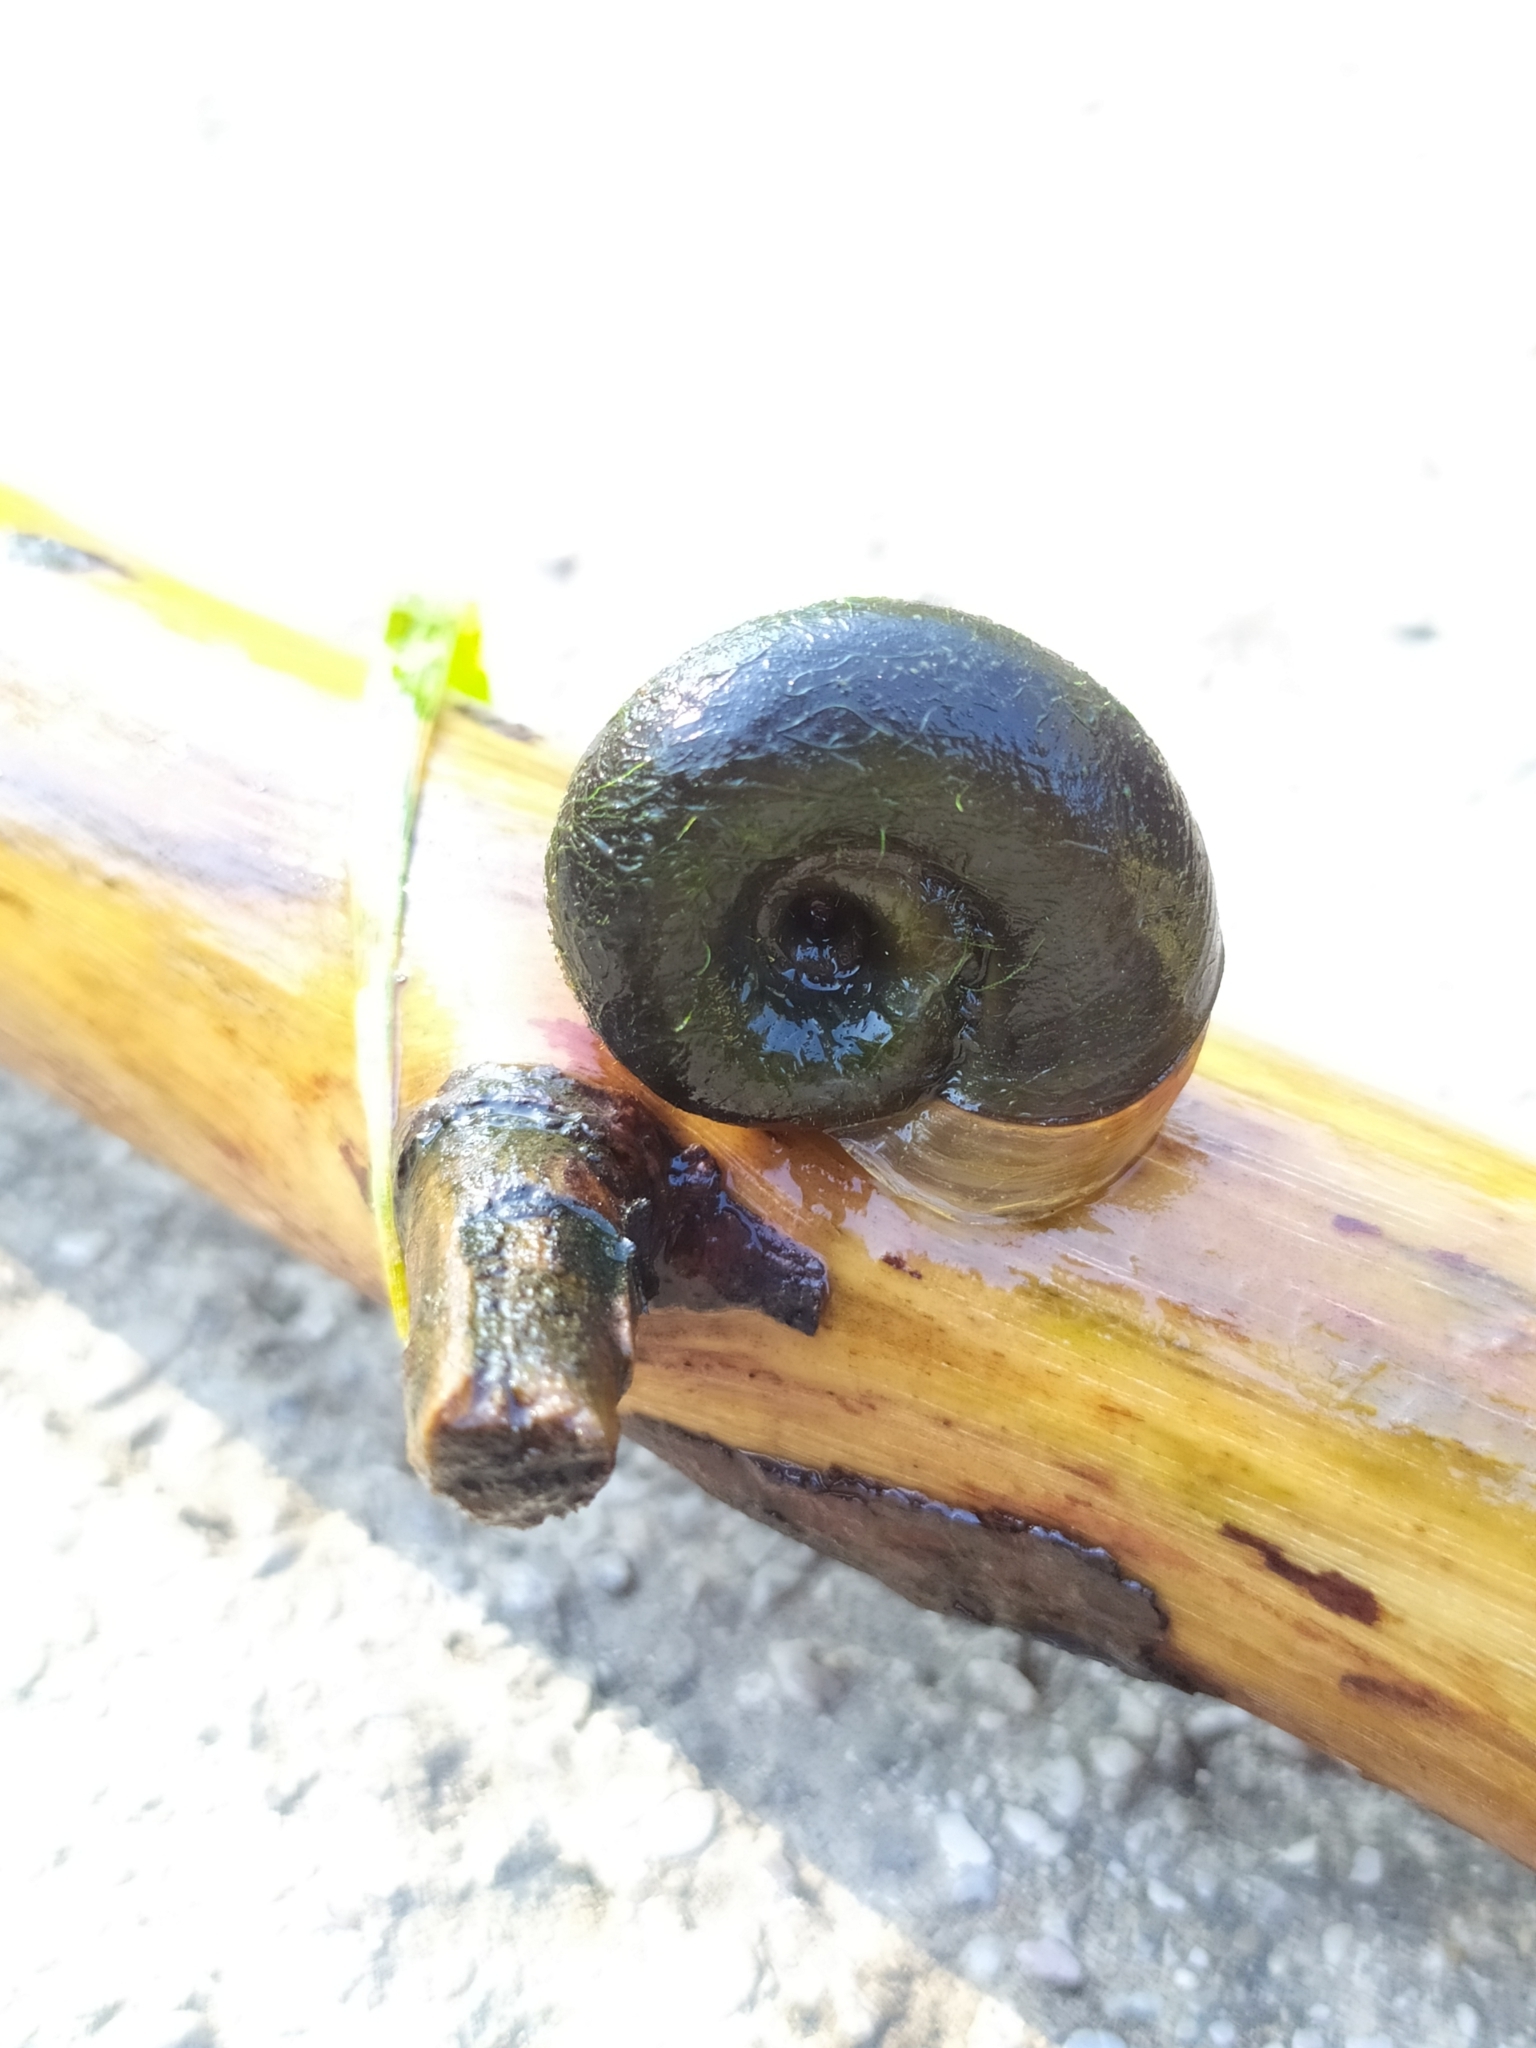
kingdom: Animalia
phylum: Mollusca
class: Gastropoda
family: Planorbidae
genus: Planorbarius
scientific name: Planorbarius corneus
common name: Great ramshorn
